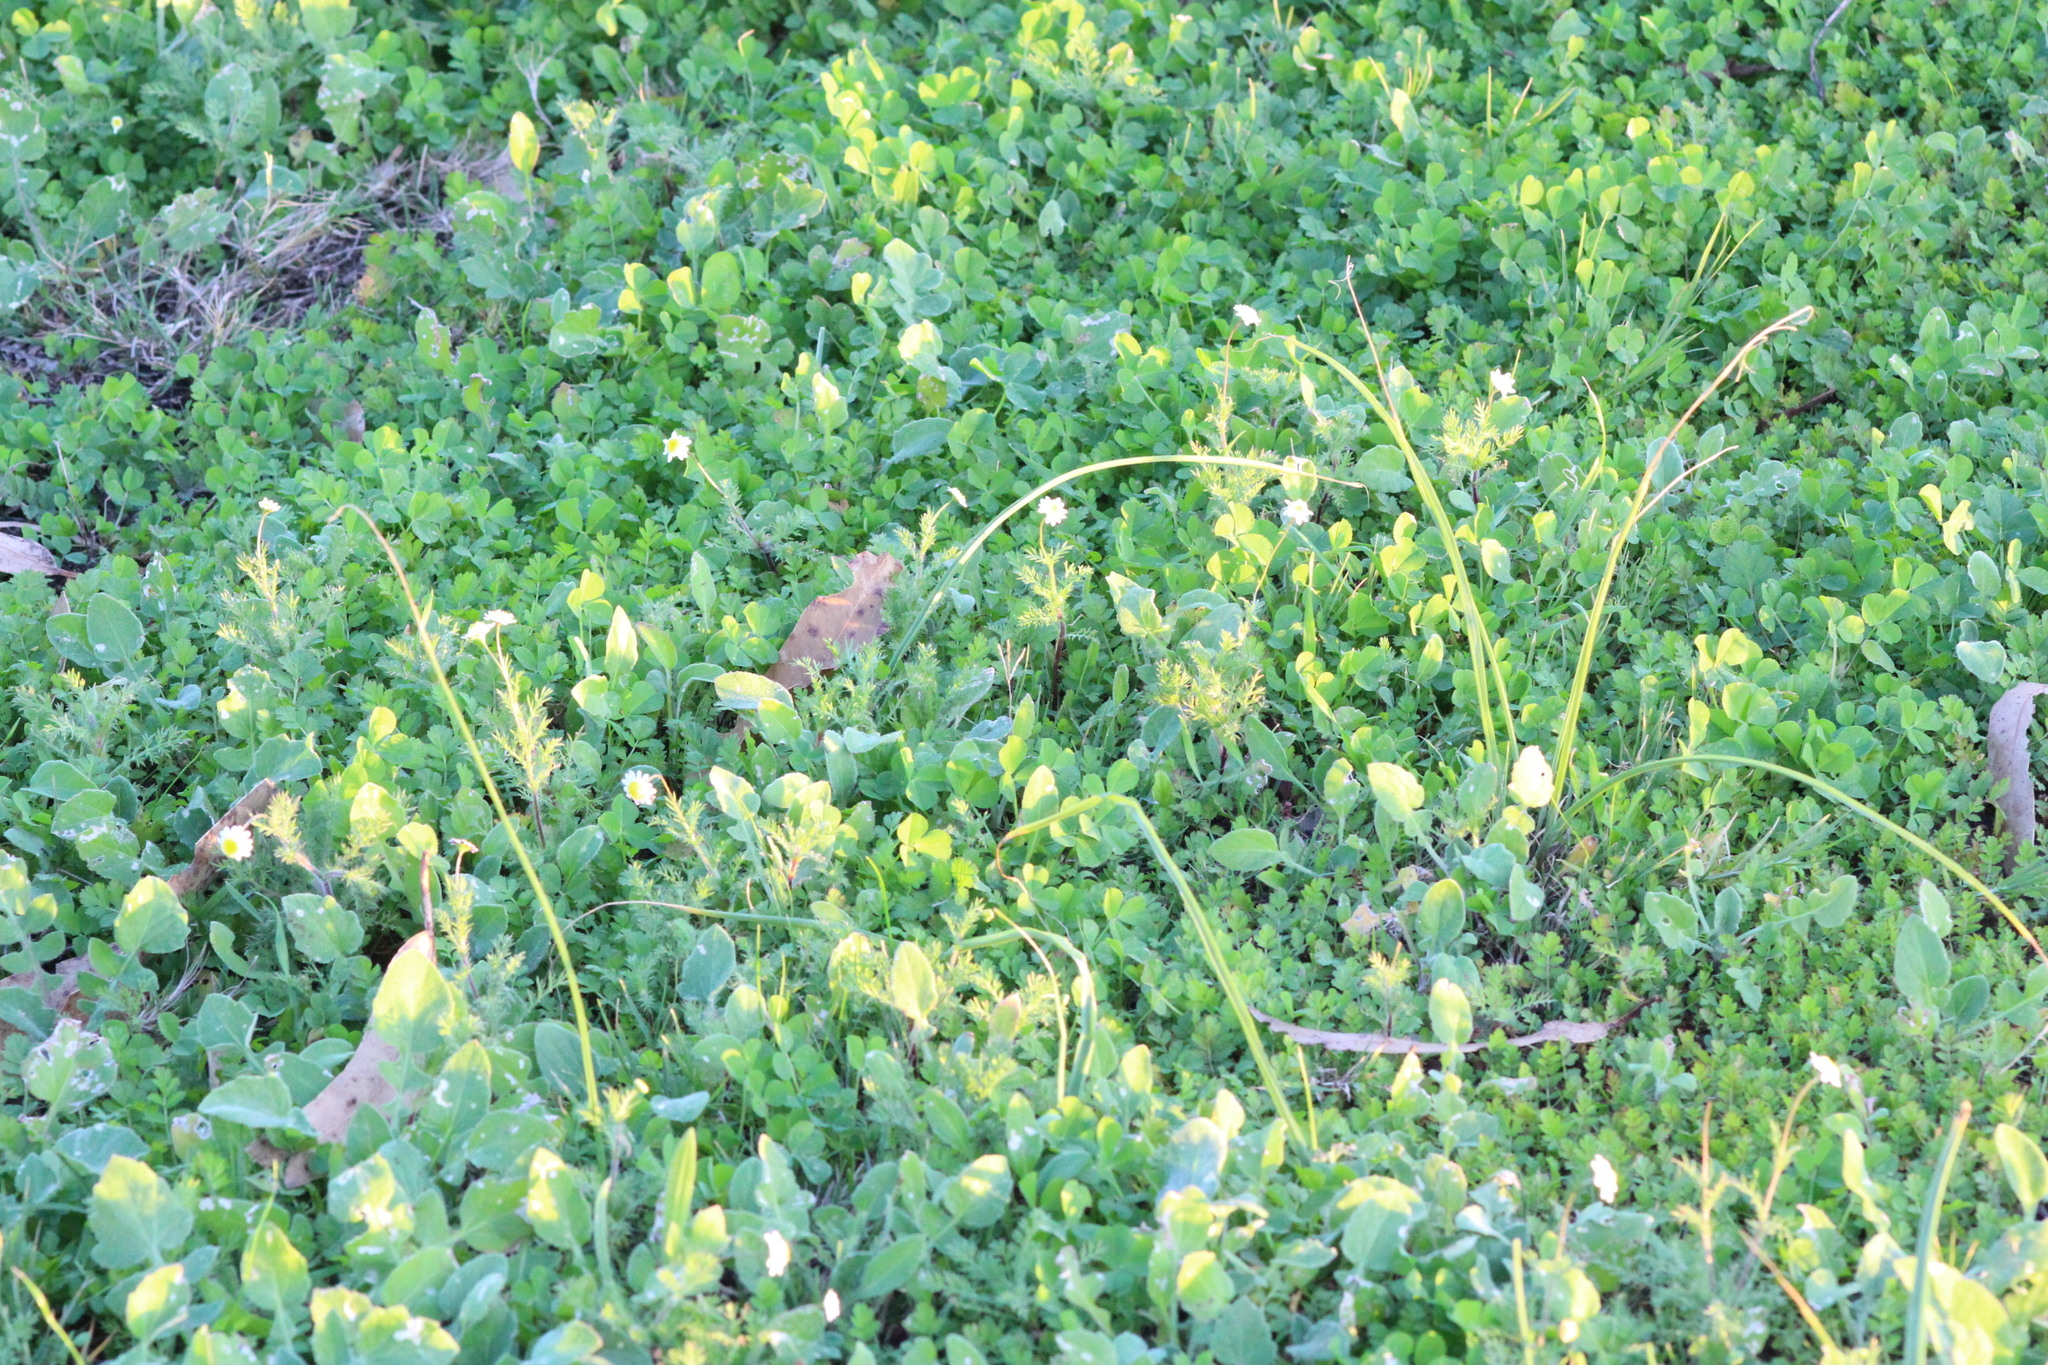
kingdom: Plantae
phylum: Tracheophyta
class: Magnoliopsida
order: Asterales
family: Asteraceae
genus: Cotula
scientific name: Cotula turbinata
